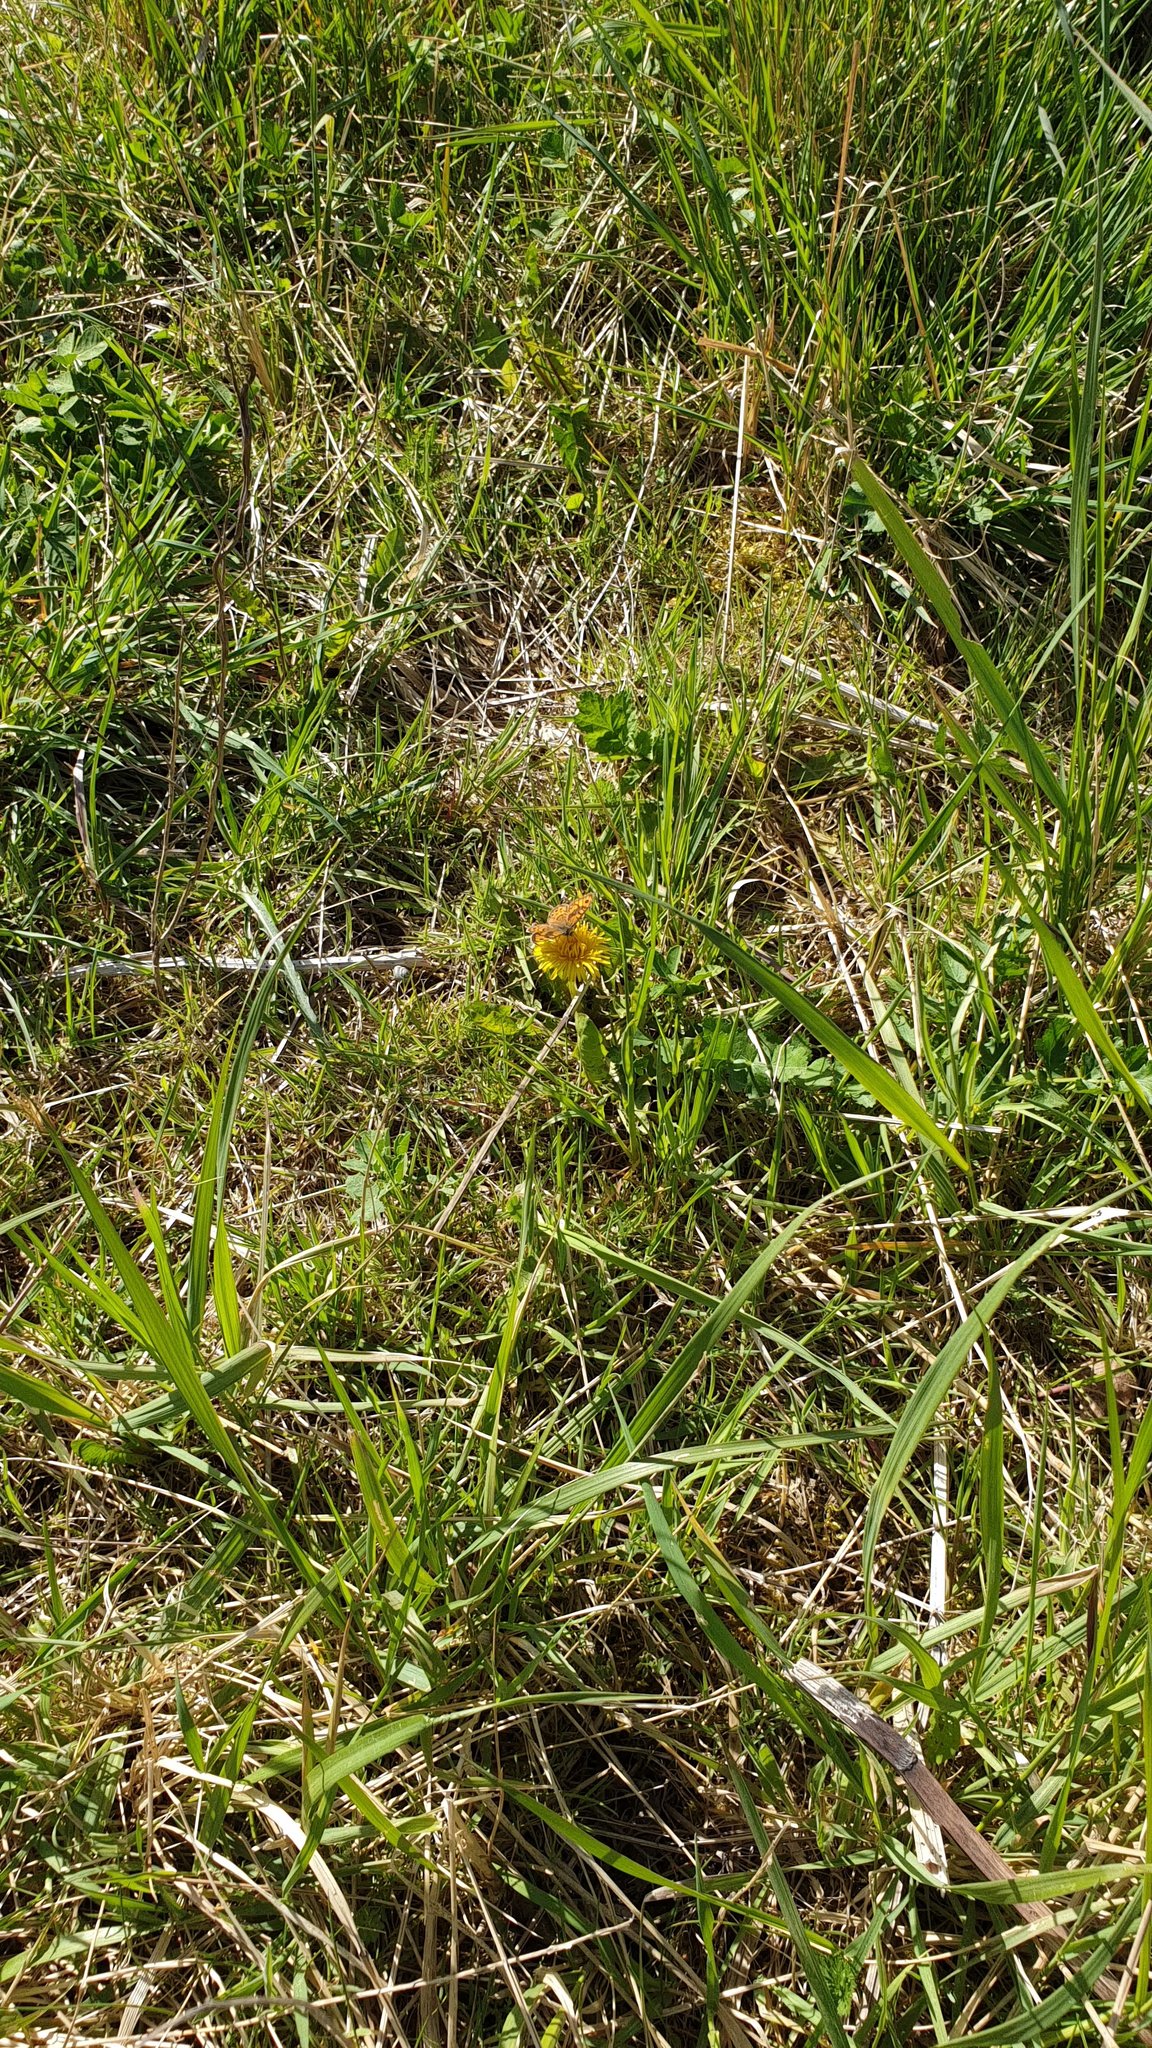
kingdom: Animalia
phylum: Arthropoda
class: Insecta
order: Lepidoptera
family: Nymphalidae
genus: Pararge
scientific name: Pararge Lasiommata megera
